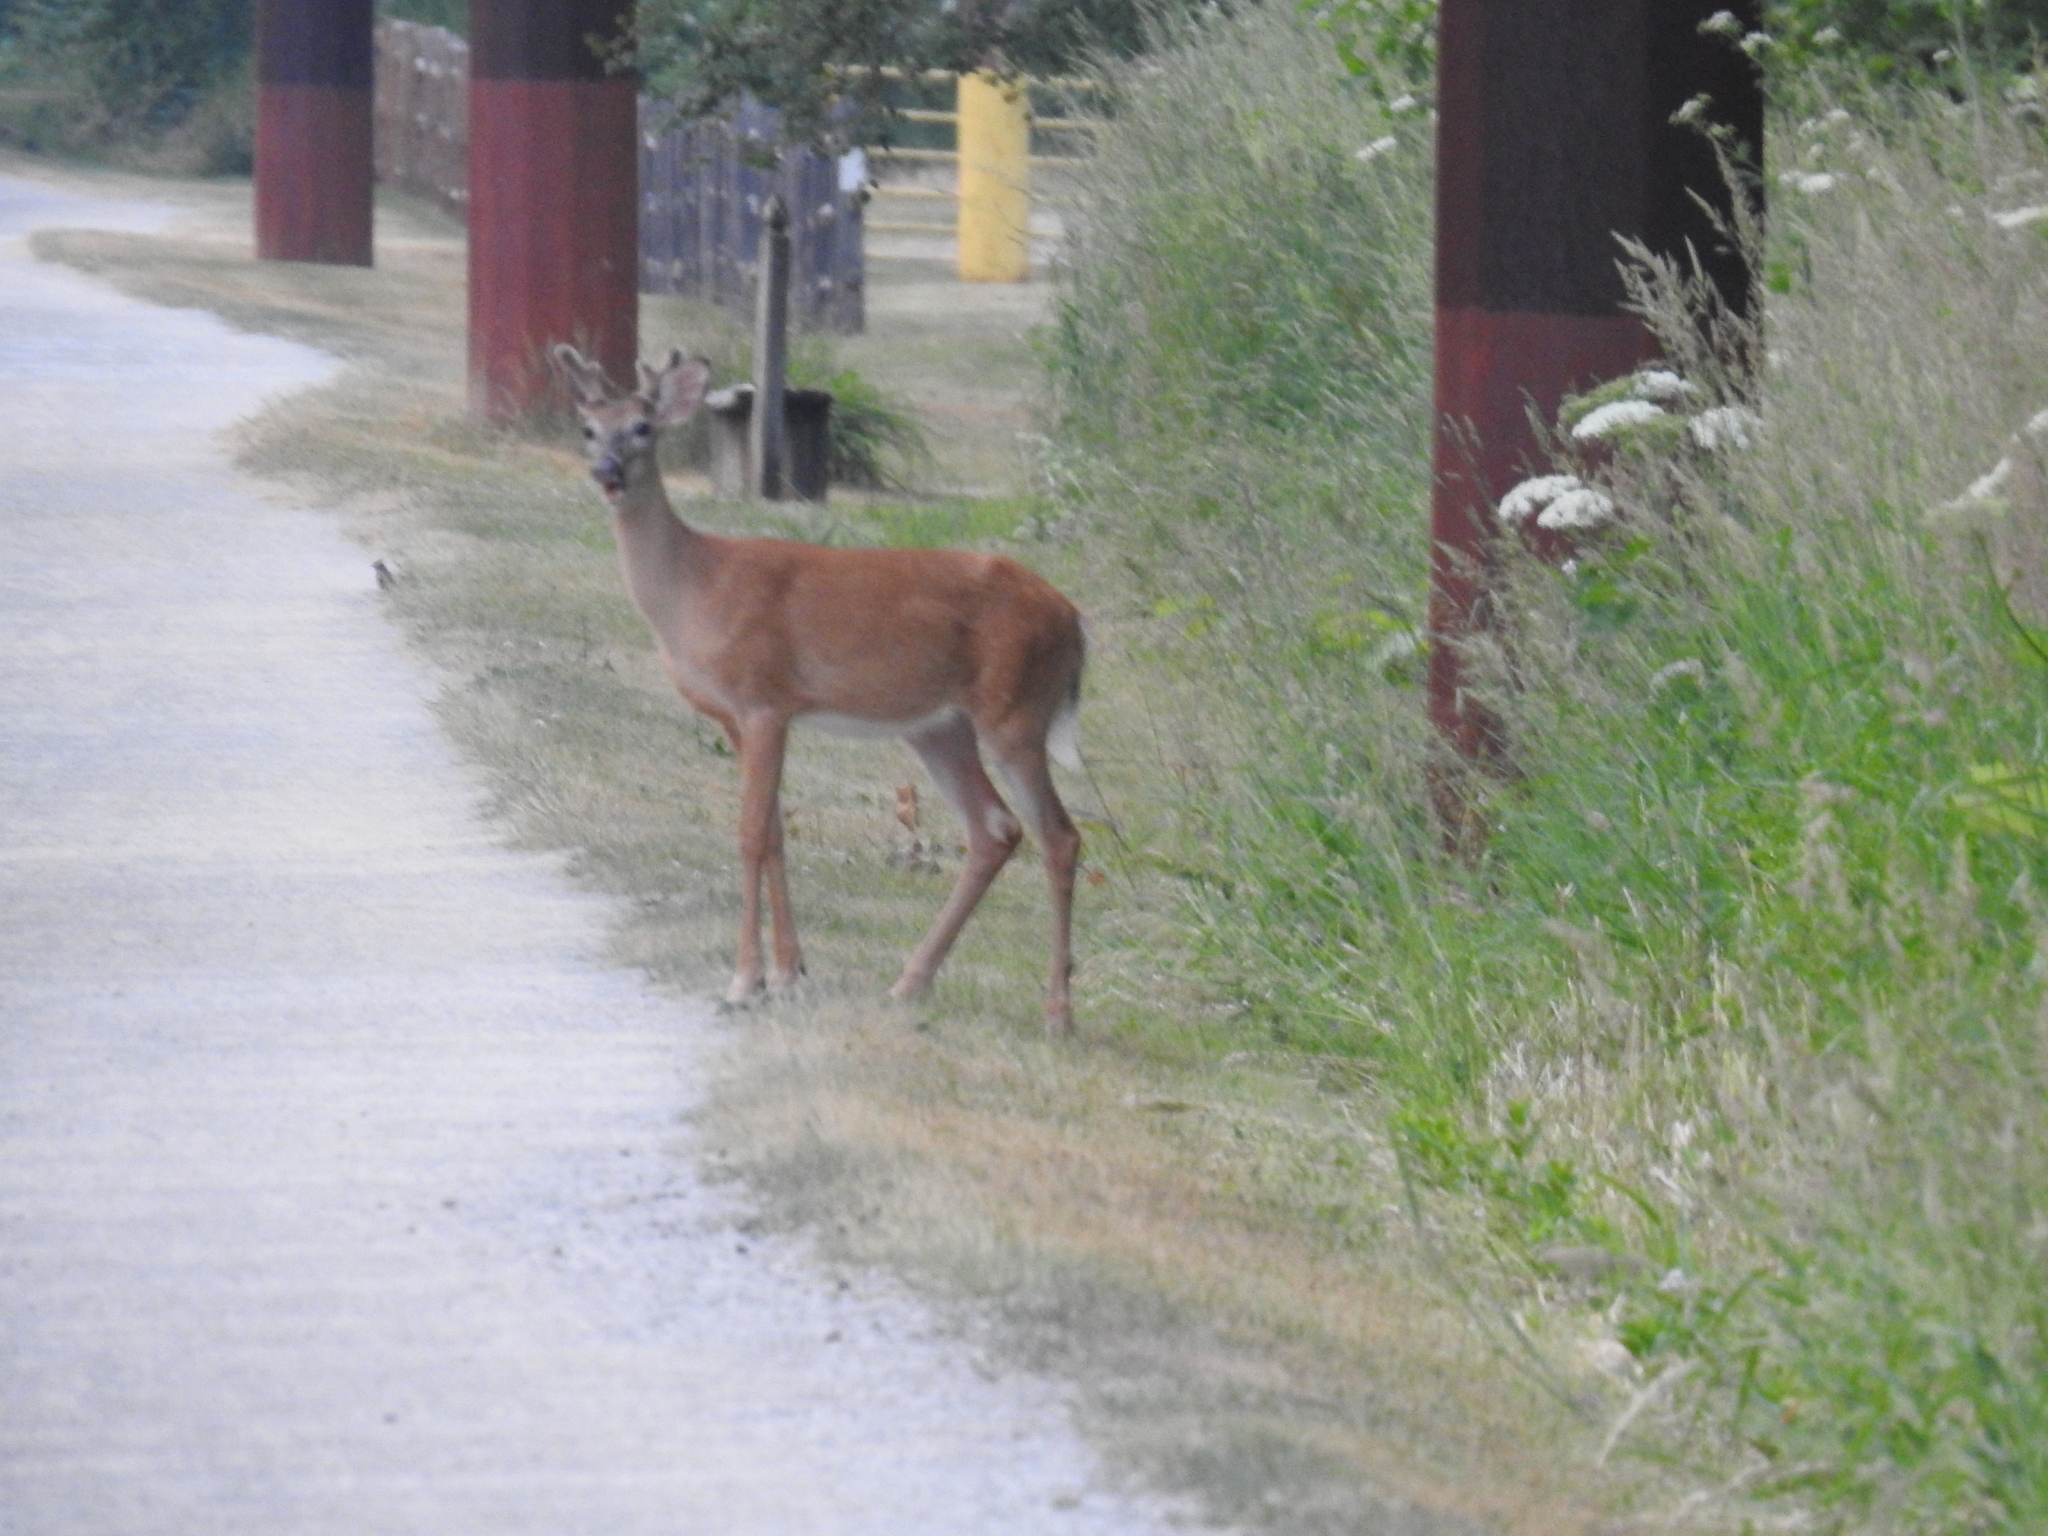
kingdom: Animalia
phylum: Chordata
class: Mammalia
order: Artiodactyla
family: Cervidae
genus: Odocoileus
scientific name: Odocoileus virginianus
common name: White-tailed deer
